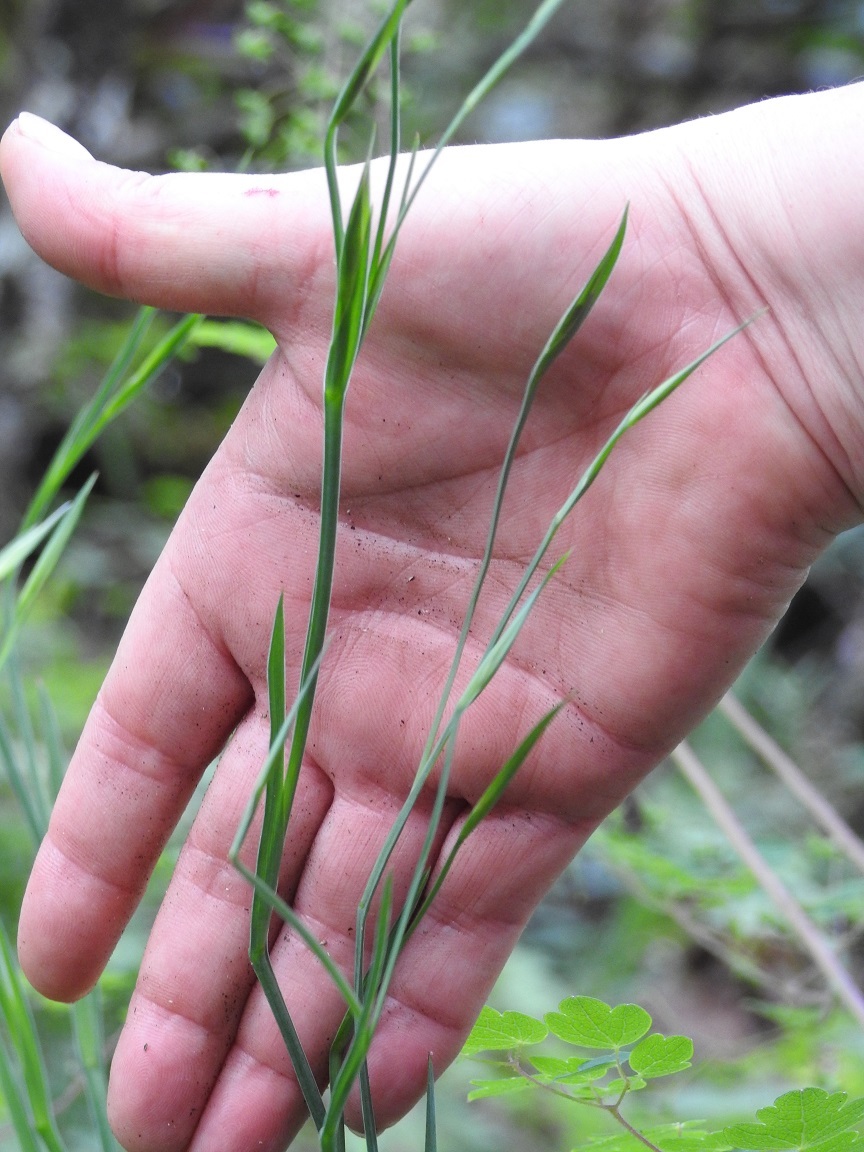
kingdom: Plantae
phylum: Tracheophyta
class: Liliopsida
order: Asparagales
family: Iridaceae
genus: Sisyrinchium
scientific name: Sisyrinchium angustissimum
